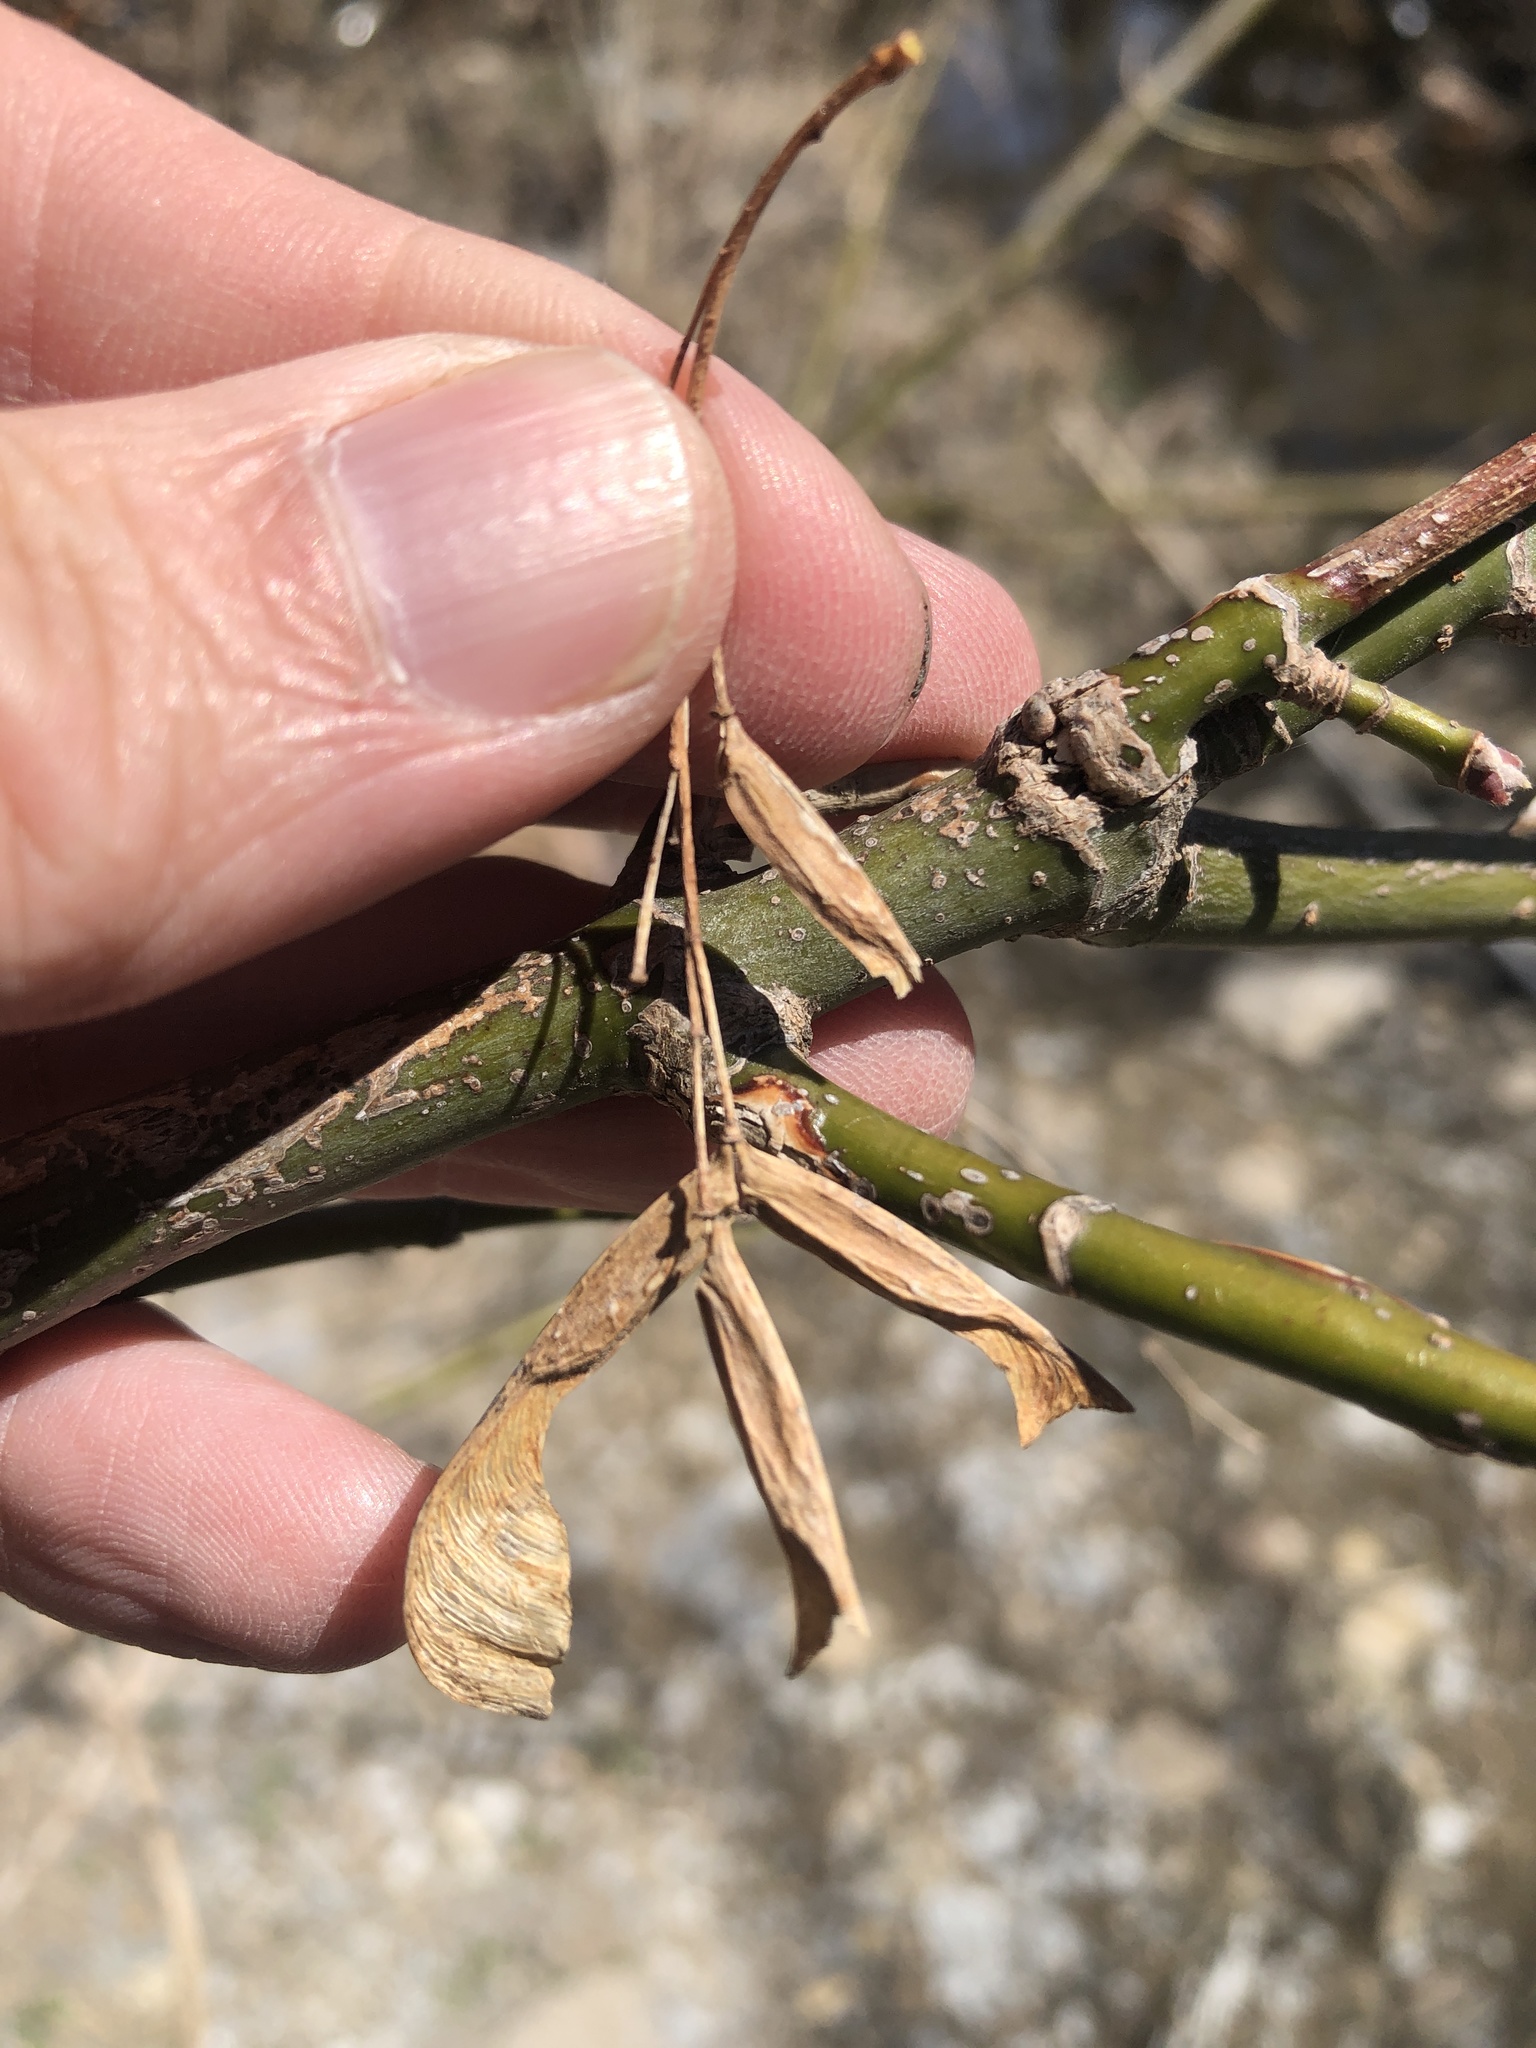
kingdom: Plantae
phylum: Tracheophyta
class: Magnoliopsida
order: Sapindales
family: Sapindaceae
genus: Acer
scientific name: Acer negundo
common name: Ashleaf maple
